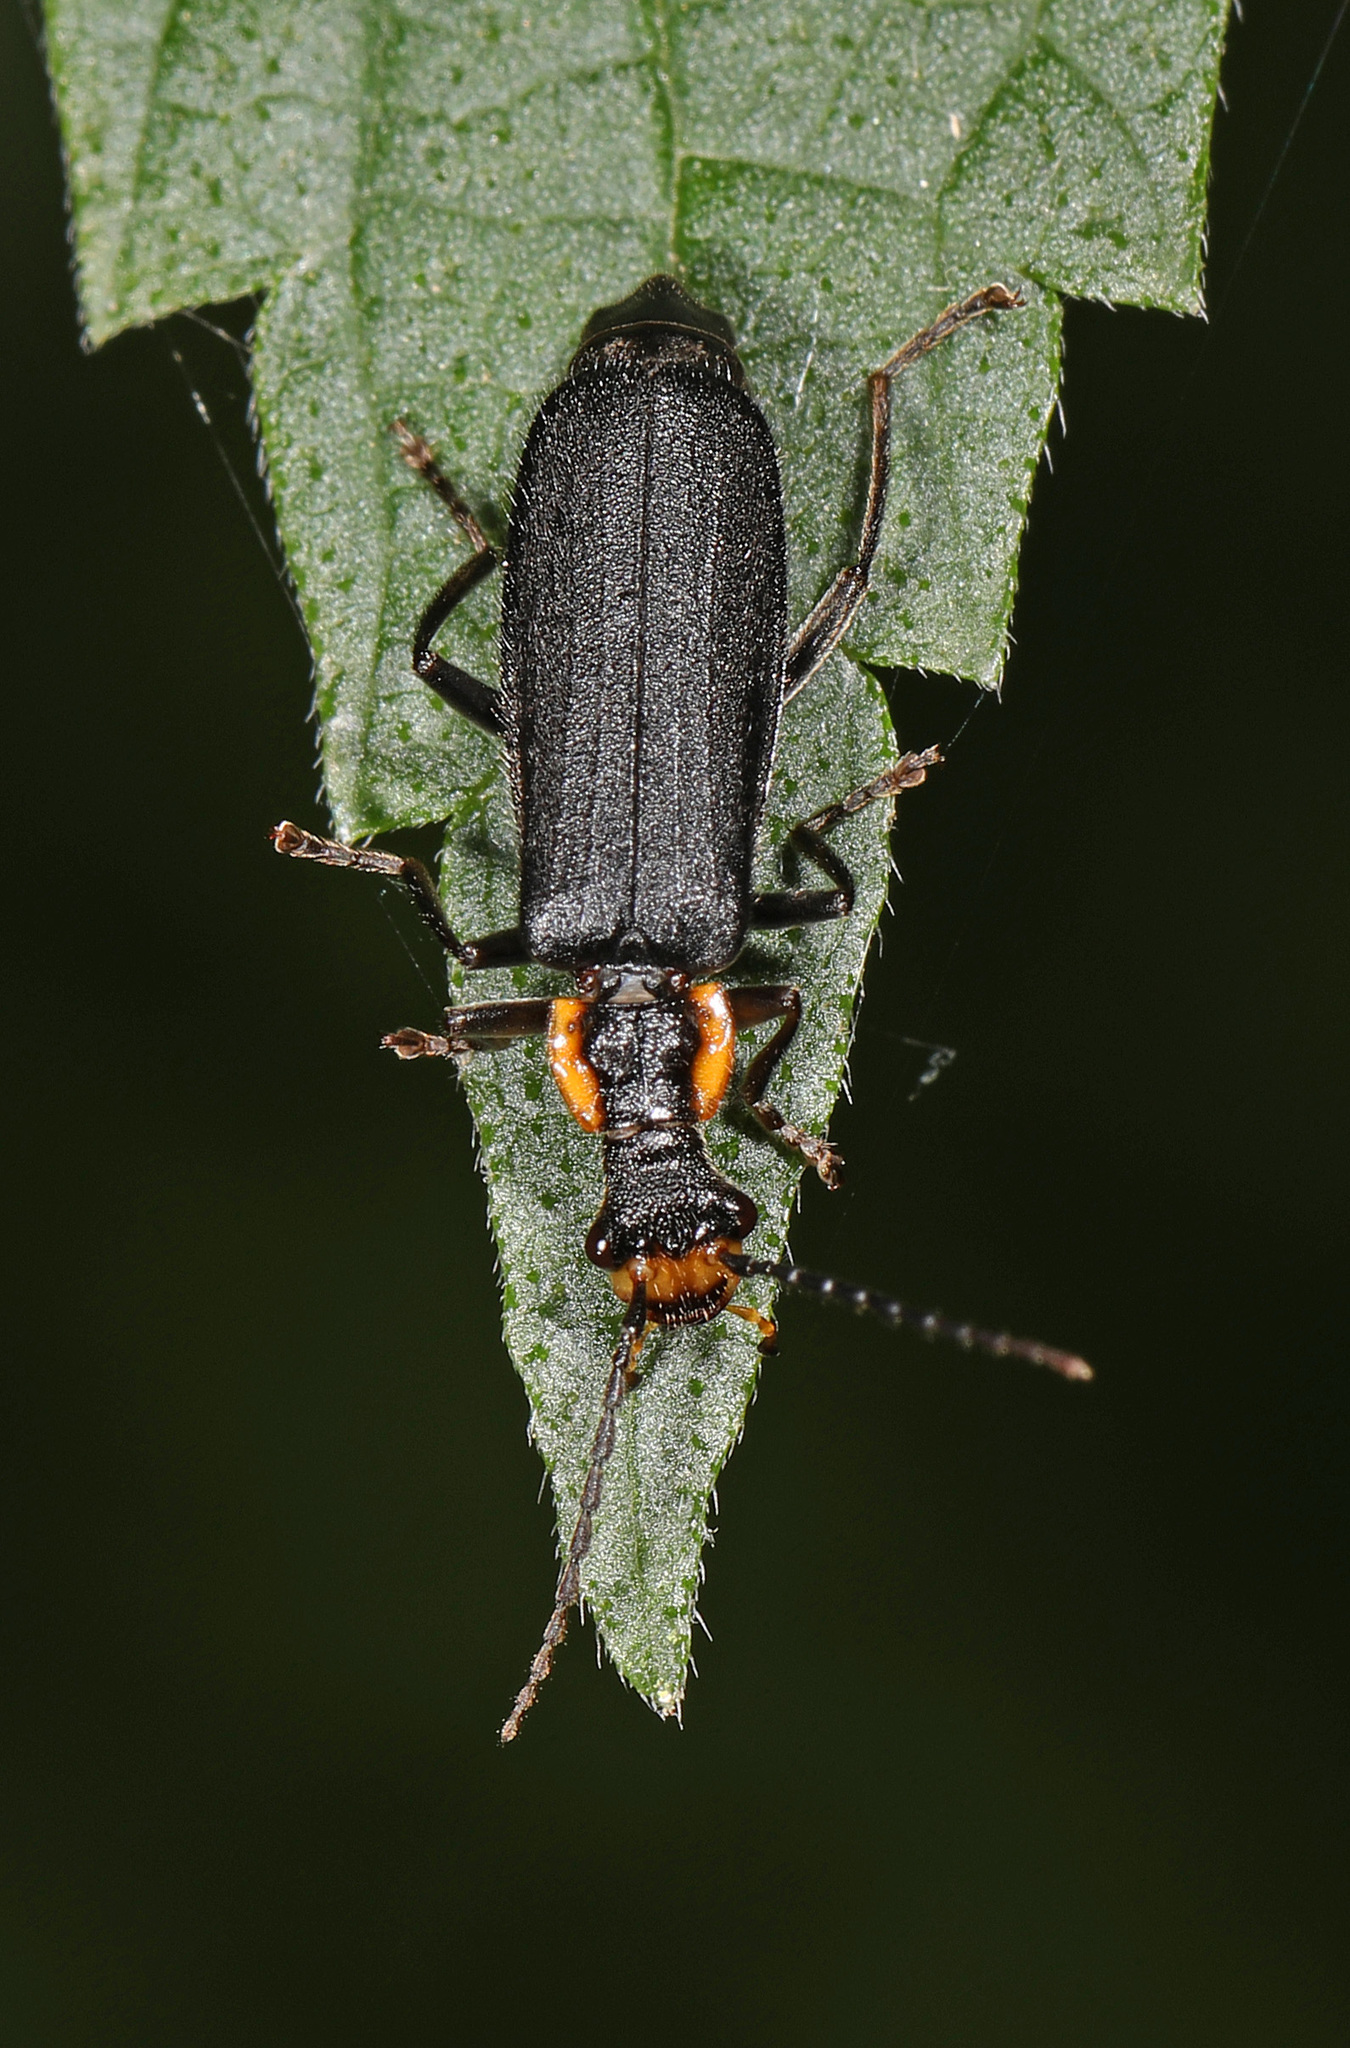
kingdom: Animalia
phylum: Arthropoda
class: Insecta
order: Coleoptera
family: Cantharidae
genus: Podabrus
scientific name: Podabrus rugosulus
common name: Wrinkled soldier beetle
